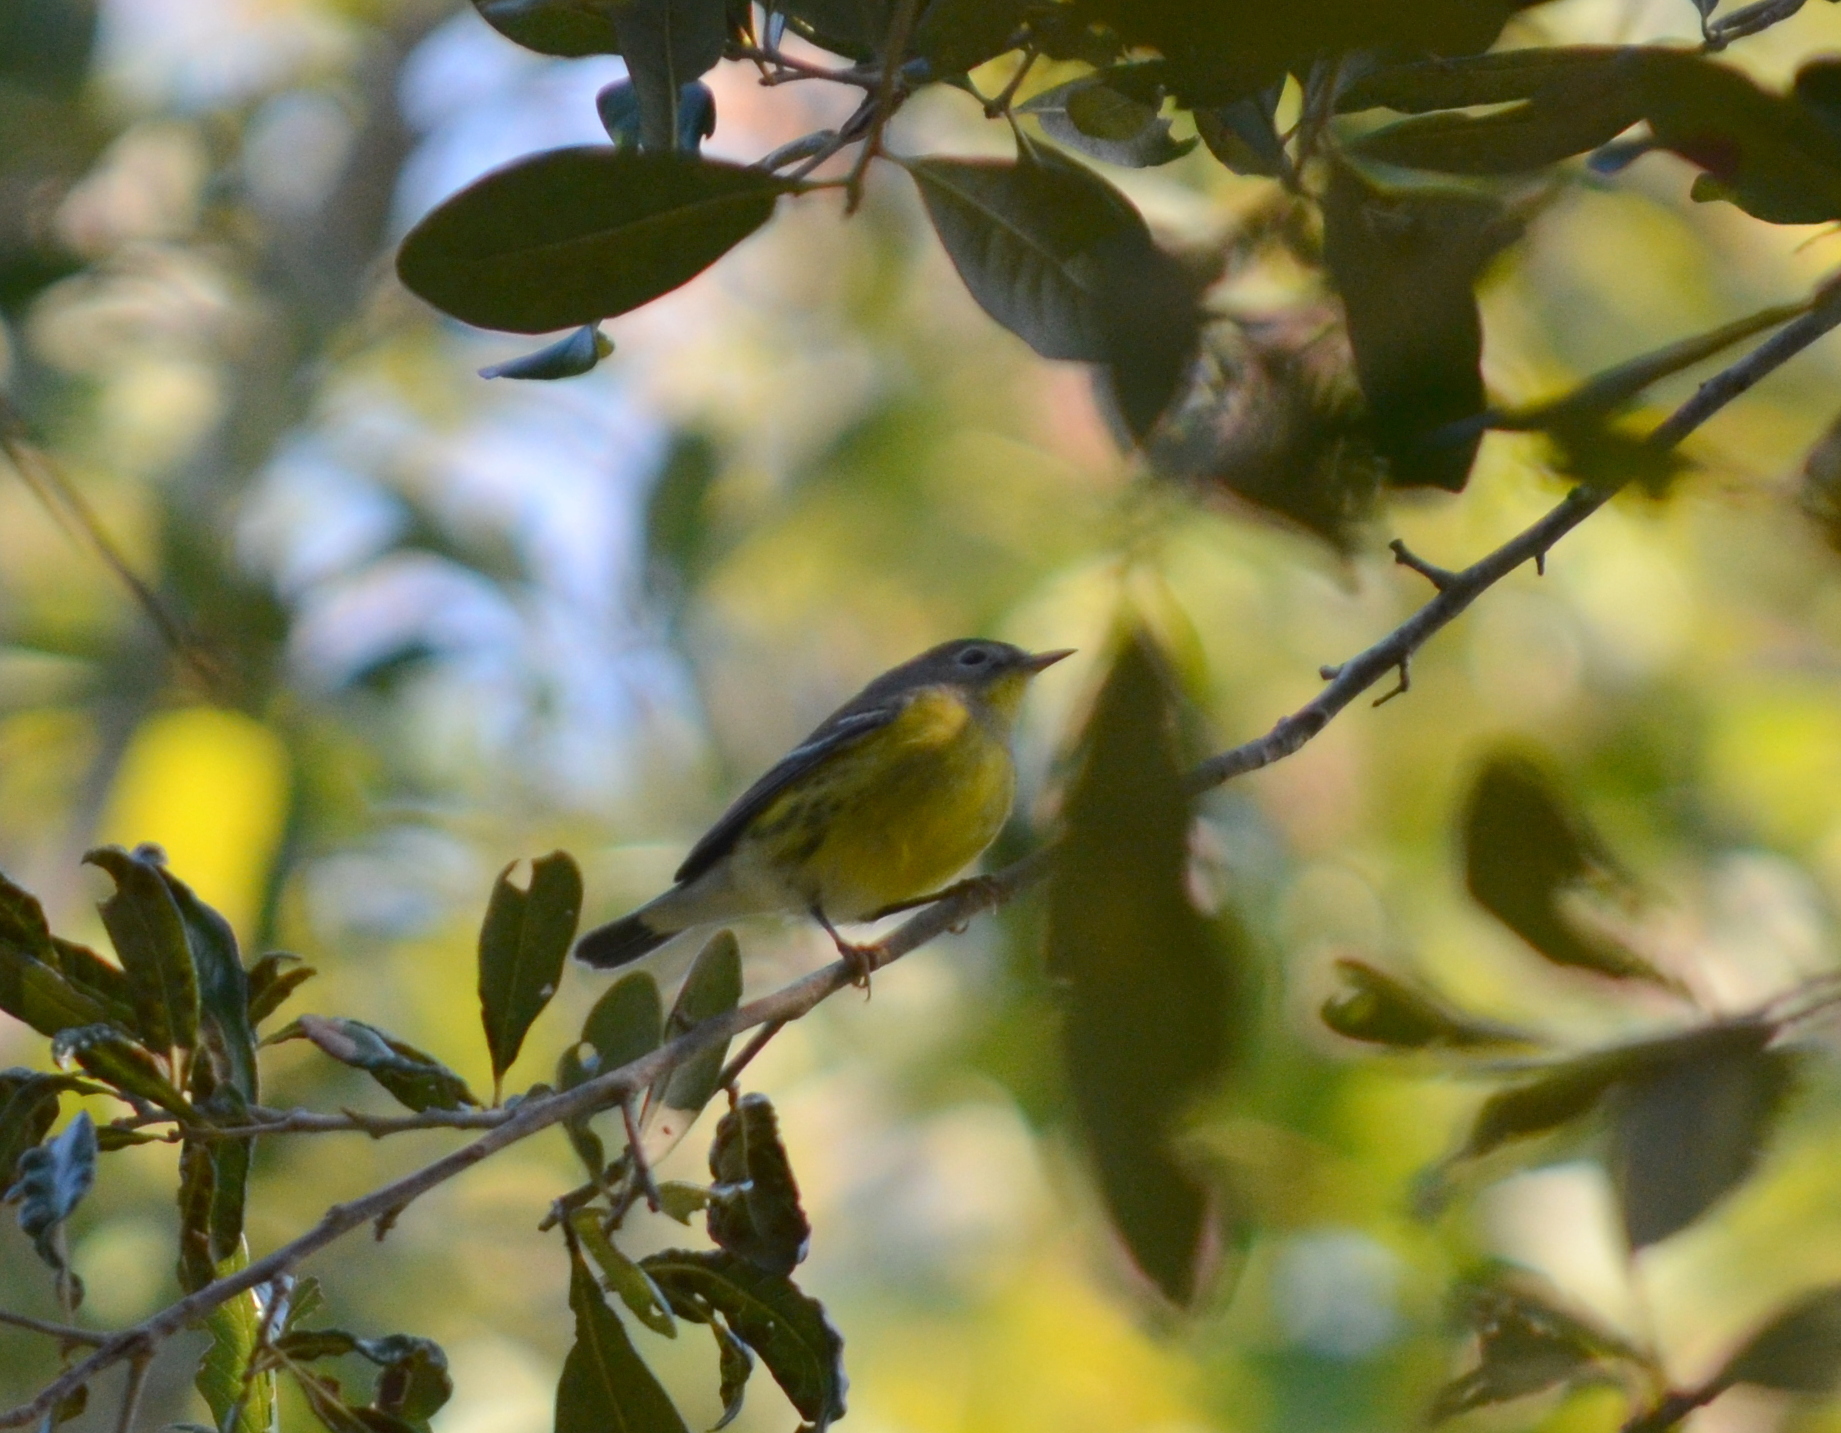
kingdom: Animalia
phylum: Chordata
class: Aves
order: Passeriformes
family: Parulidae
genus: Setophaga
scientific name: Setophaga magnolia
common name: Magnolia warbler
